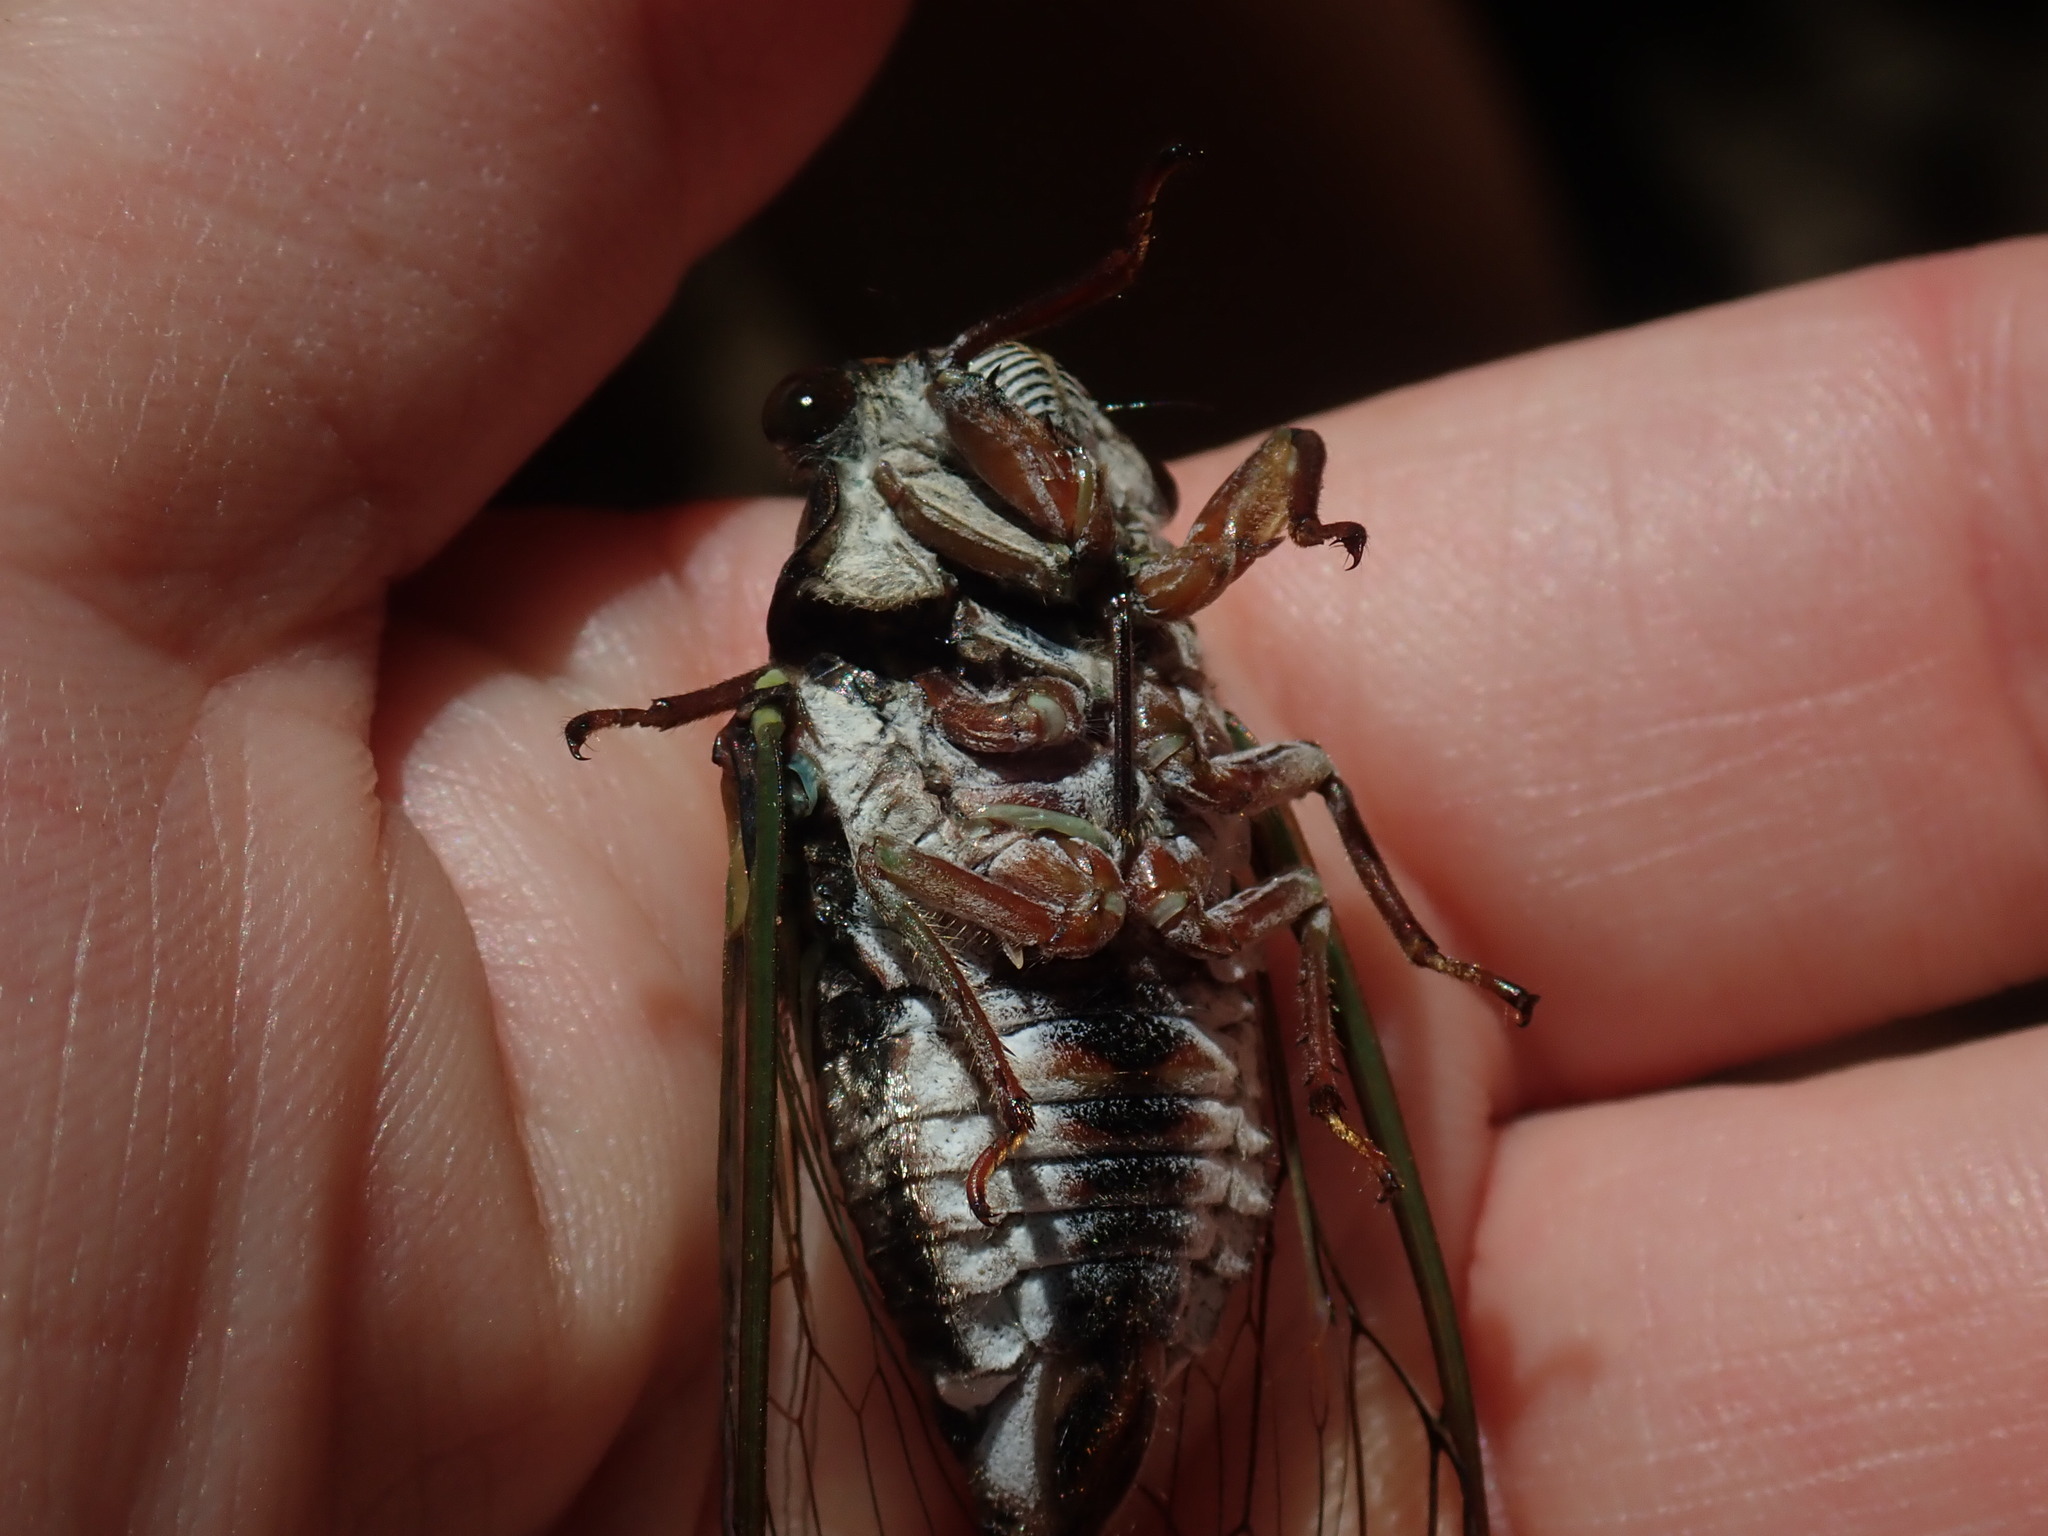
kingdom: Animalia
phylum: Arthropoda
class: Insecta
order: Hemiptera
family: Cicadidae
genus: Neotibicen
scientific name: Neotibicen lyricen
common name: Lyric cicada
